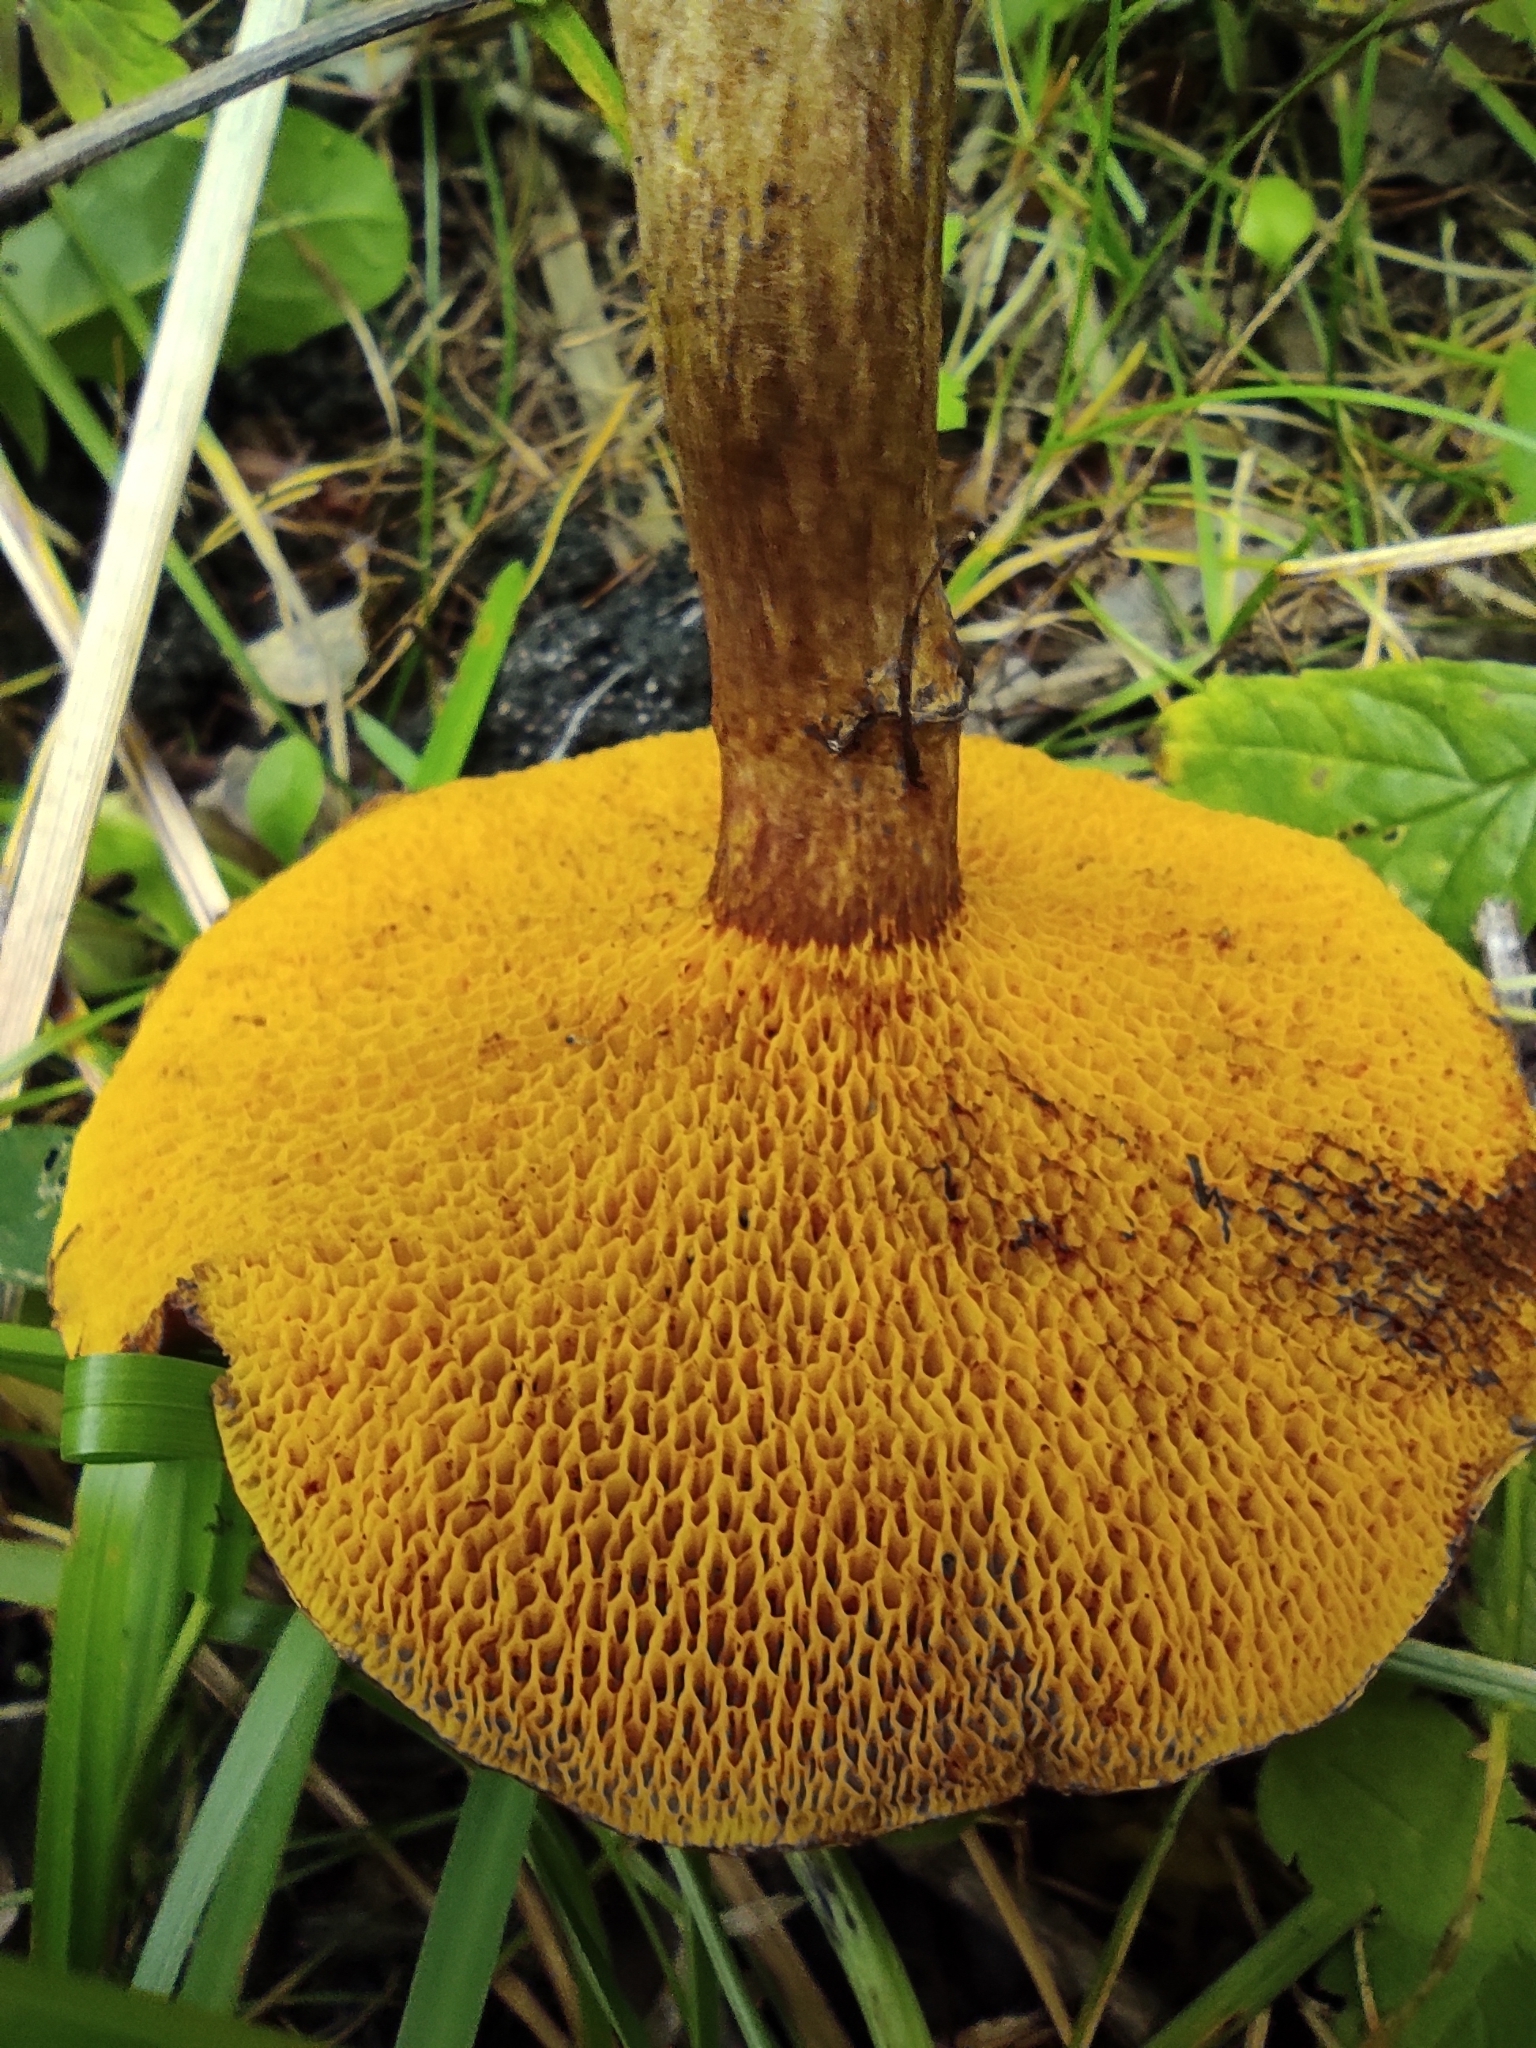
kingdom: Fungi
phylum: Basidiomycota
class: Agaricomycetes
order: Boletales
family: Suillaceae
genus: Boletinus
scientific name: Boletinus asiaticus
